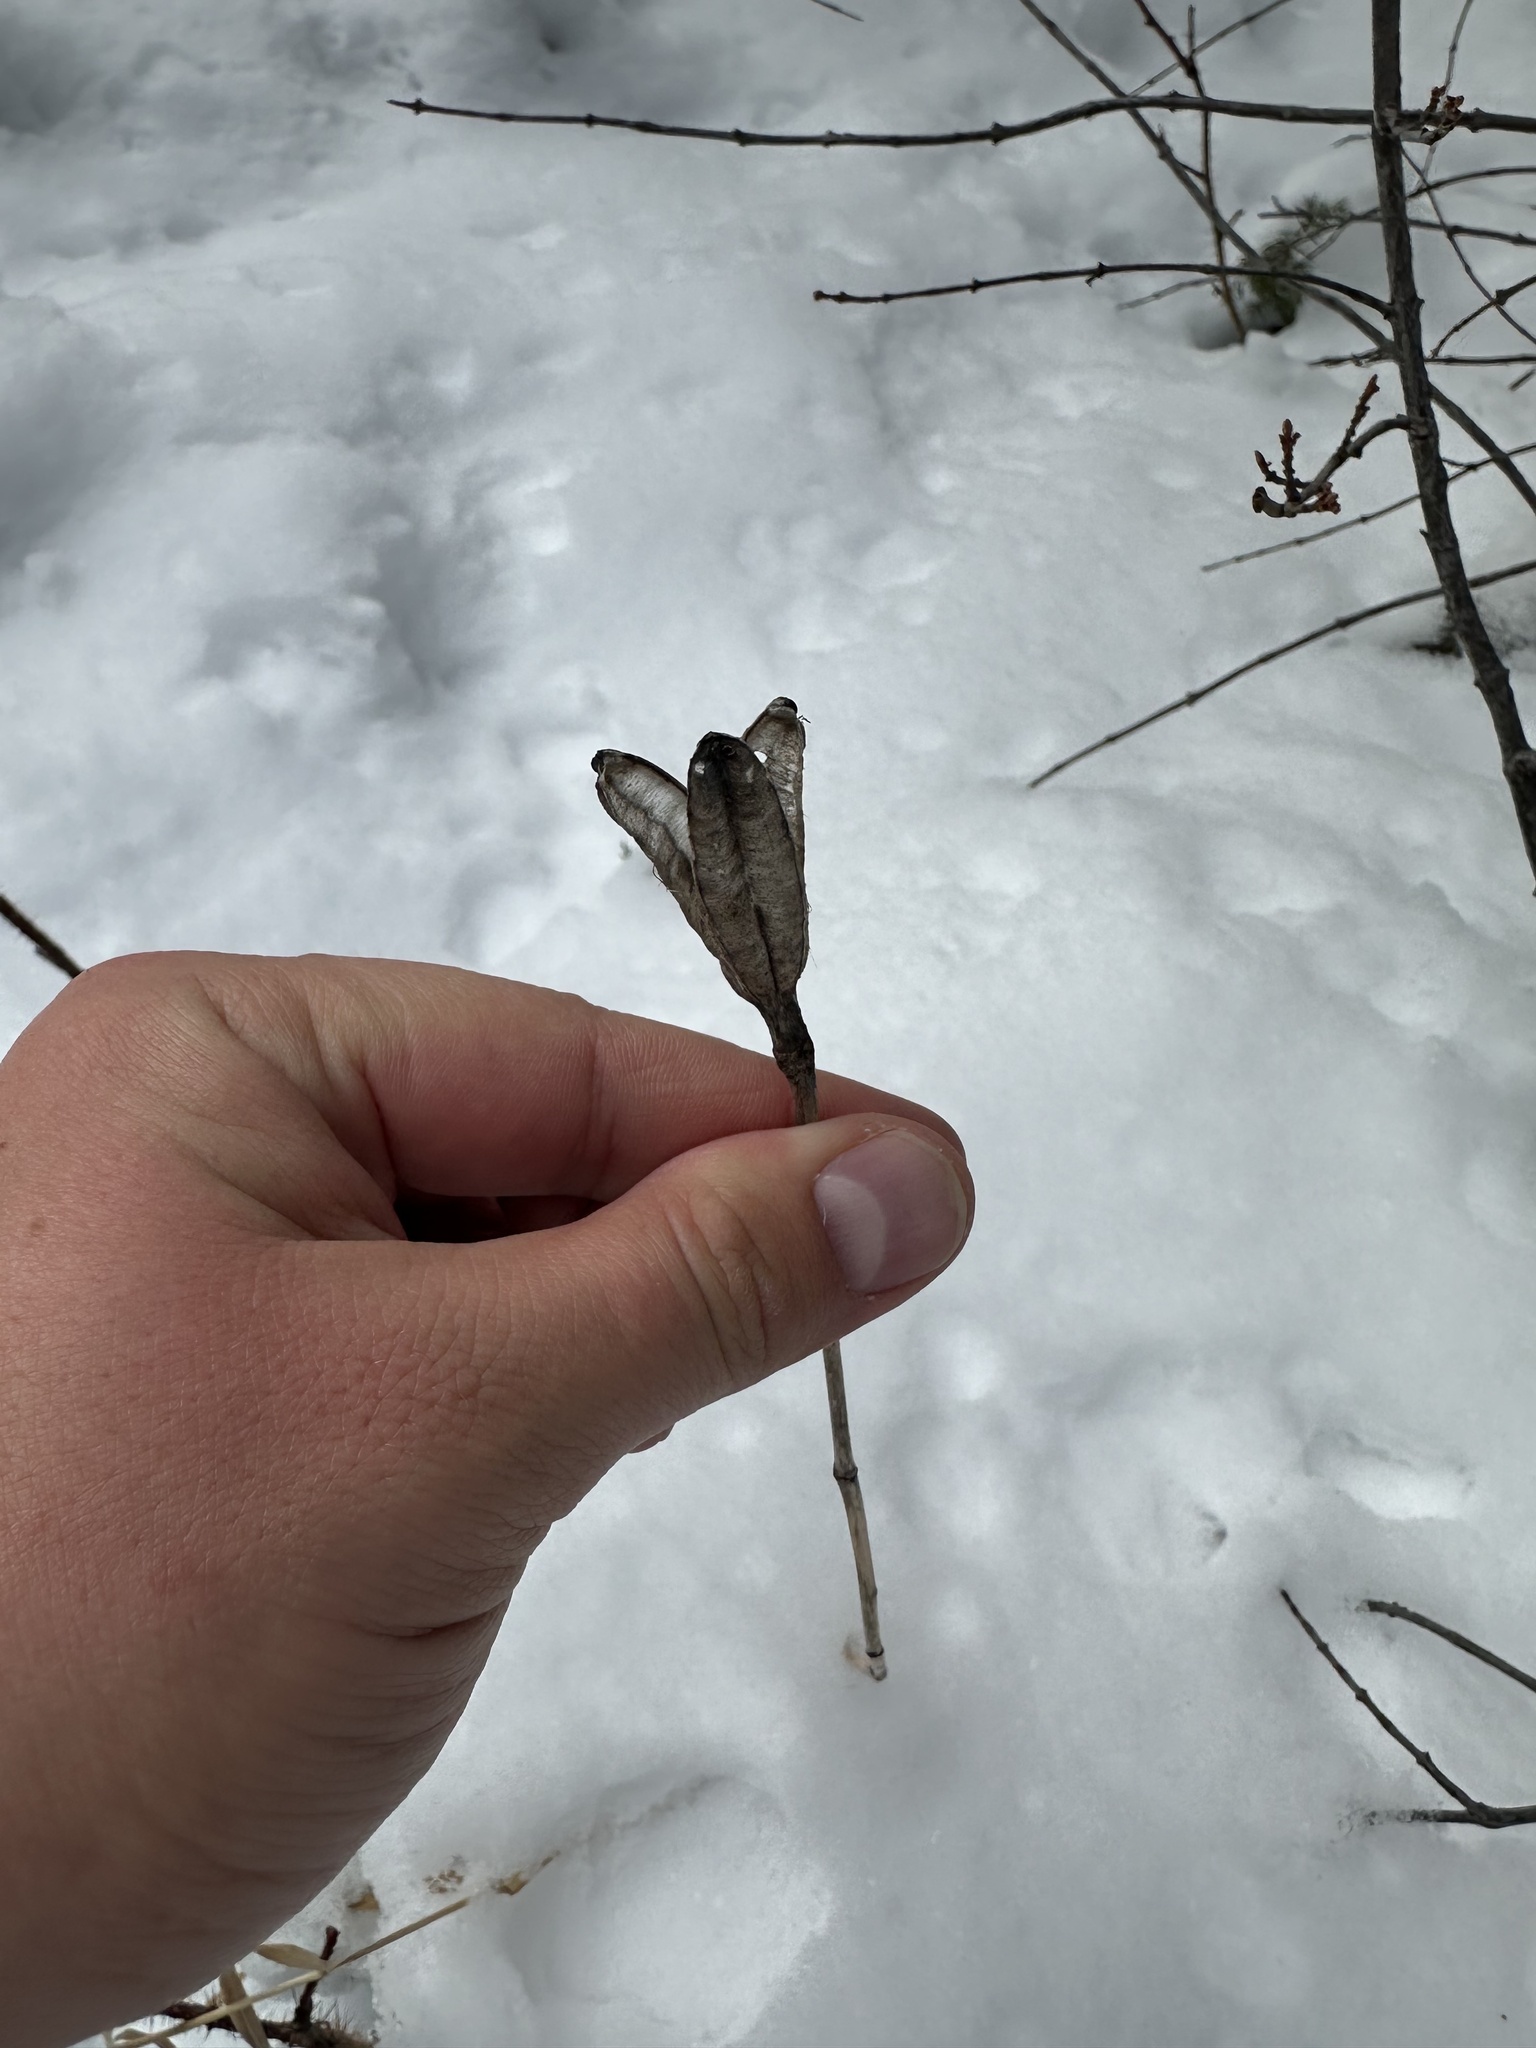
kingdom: Plantae
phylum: Tracheophyta
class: Liliopsida
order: Liliales
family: Liliaceae
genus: Lilium
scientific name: Lilium philadelphicum
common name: Red lily
